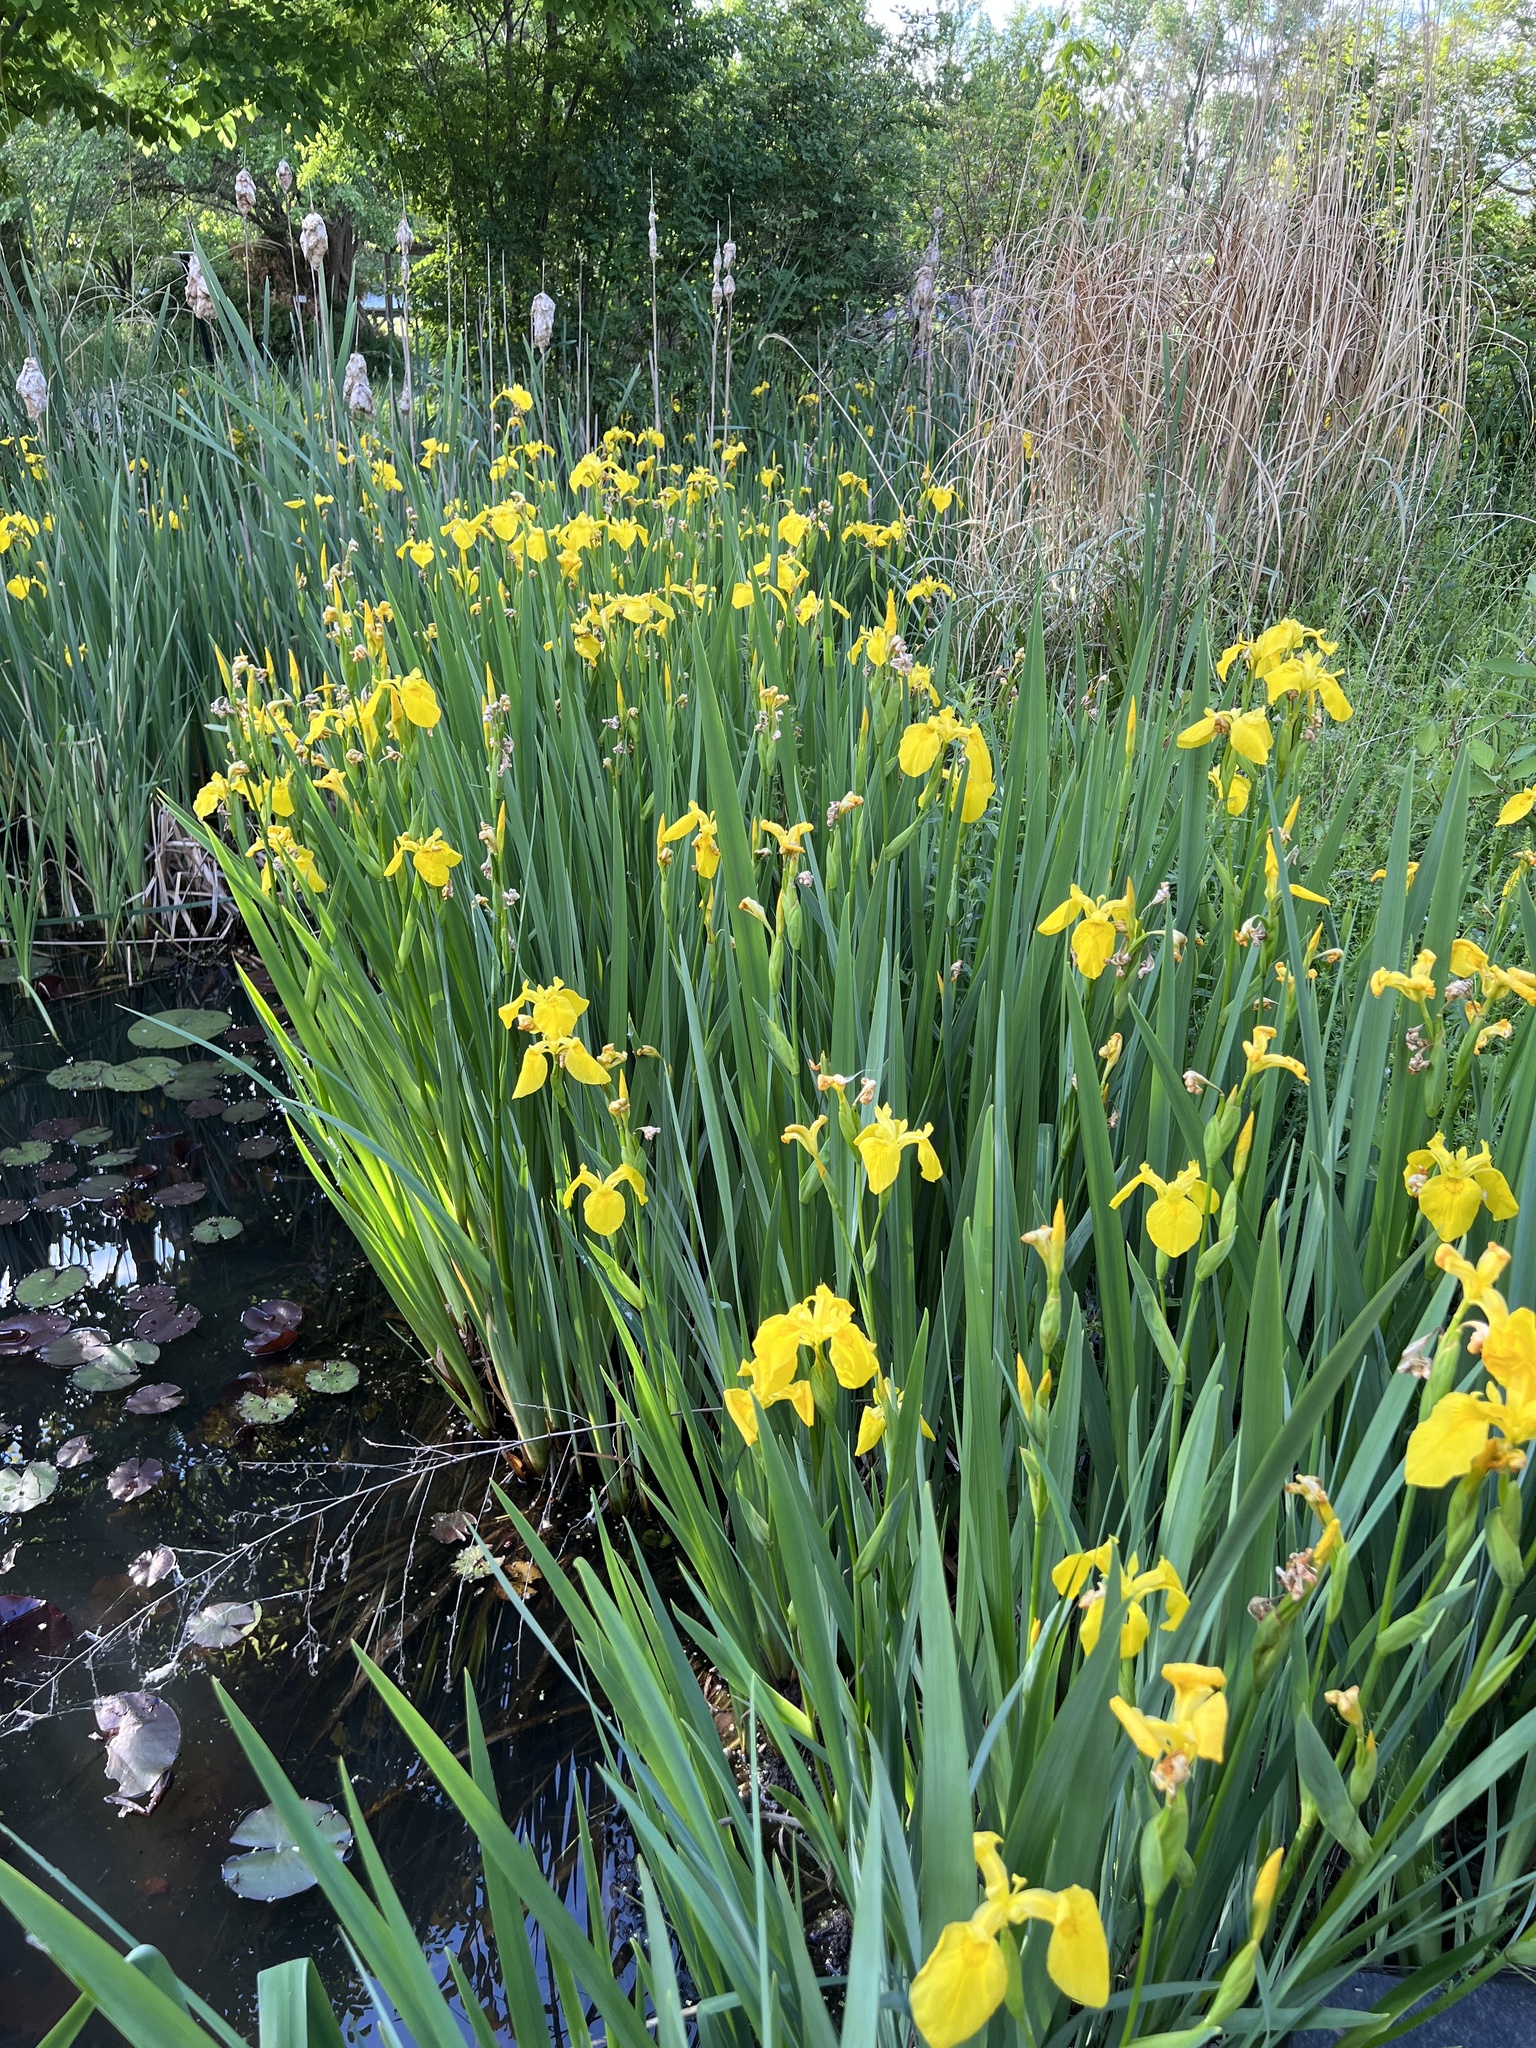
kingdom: Plantae
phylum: Tracheophyta
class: Liliopsida
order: Asparagales
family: Iridaceae
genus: Iris
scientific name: Iris pseudacorus
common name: Yellow flag
